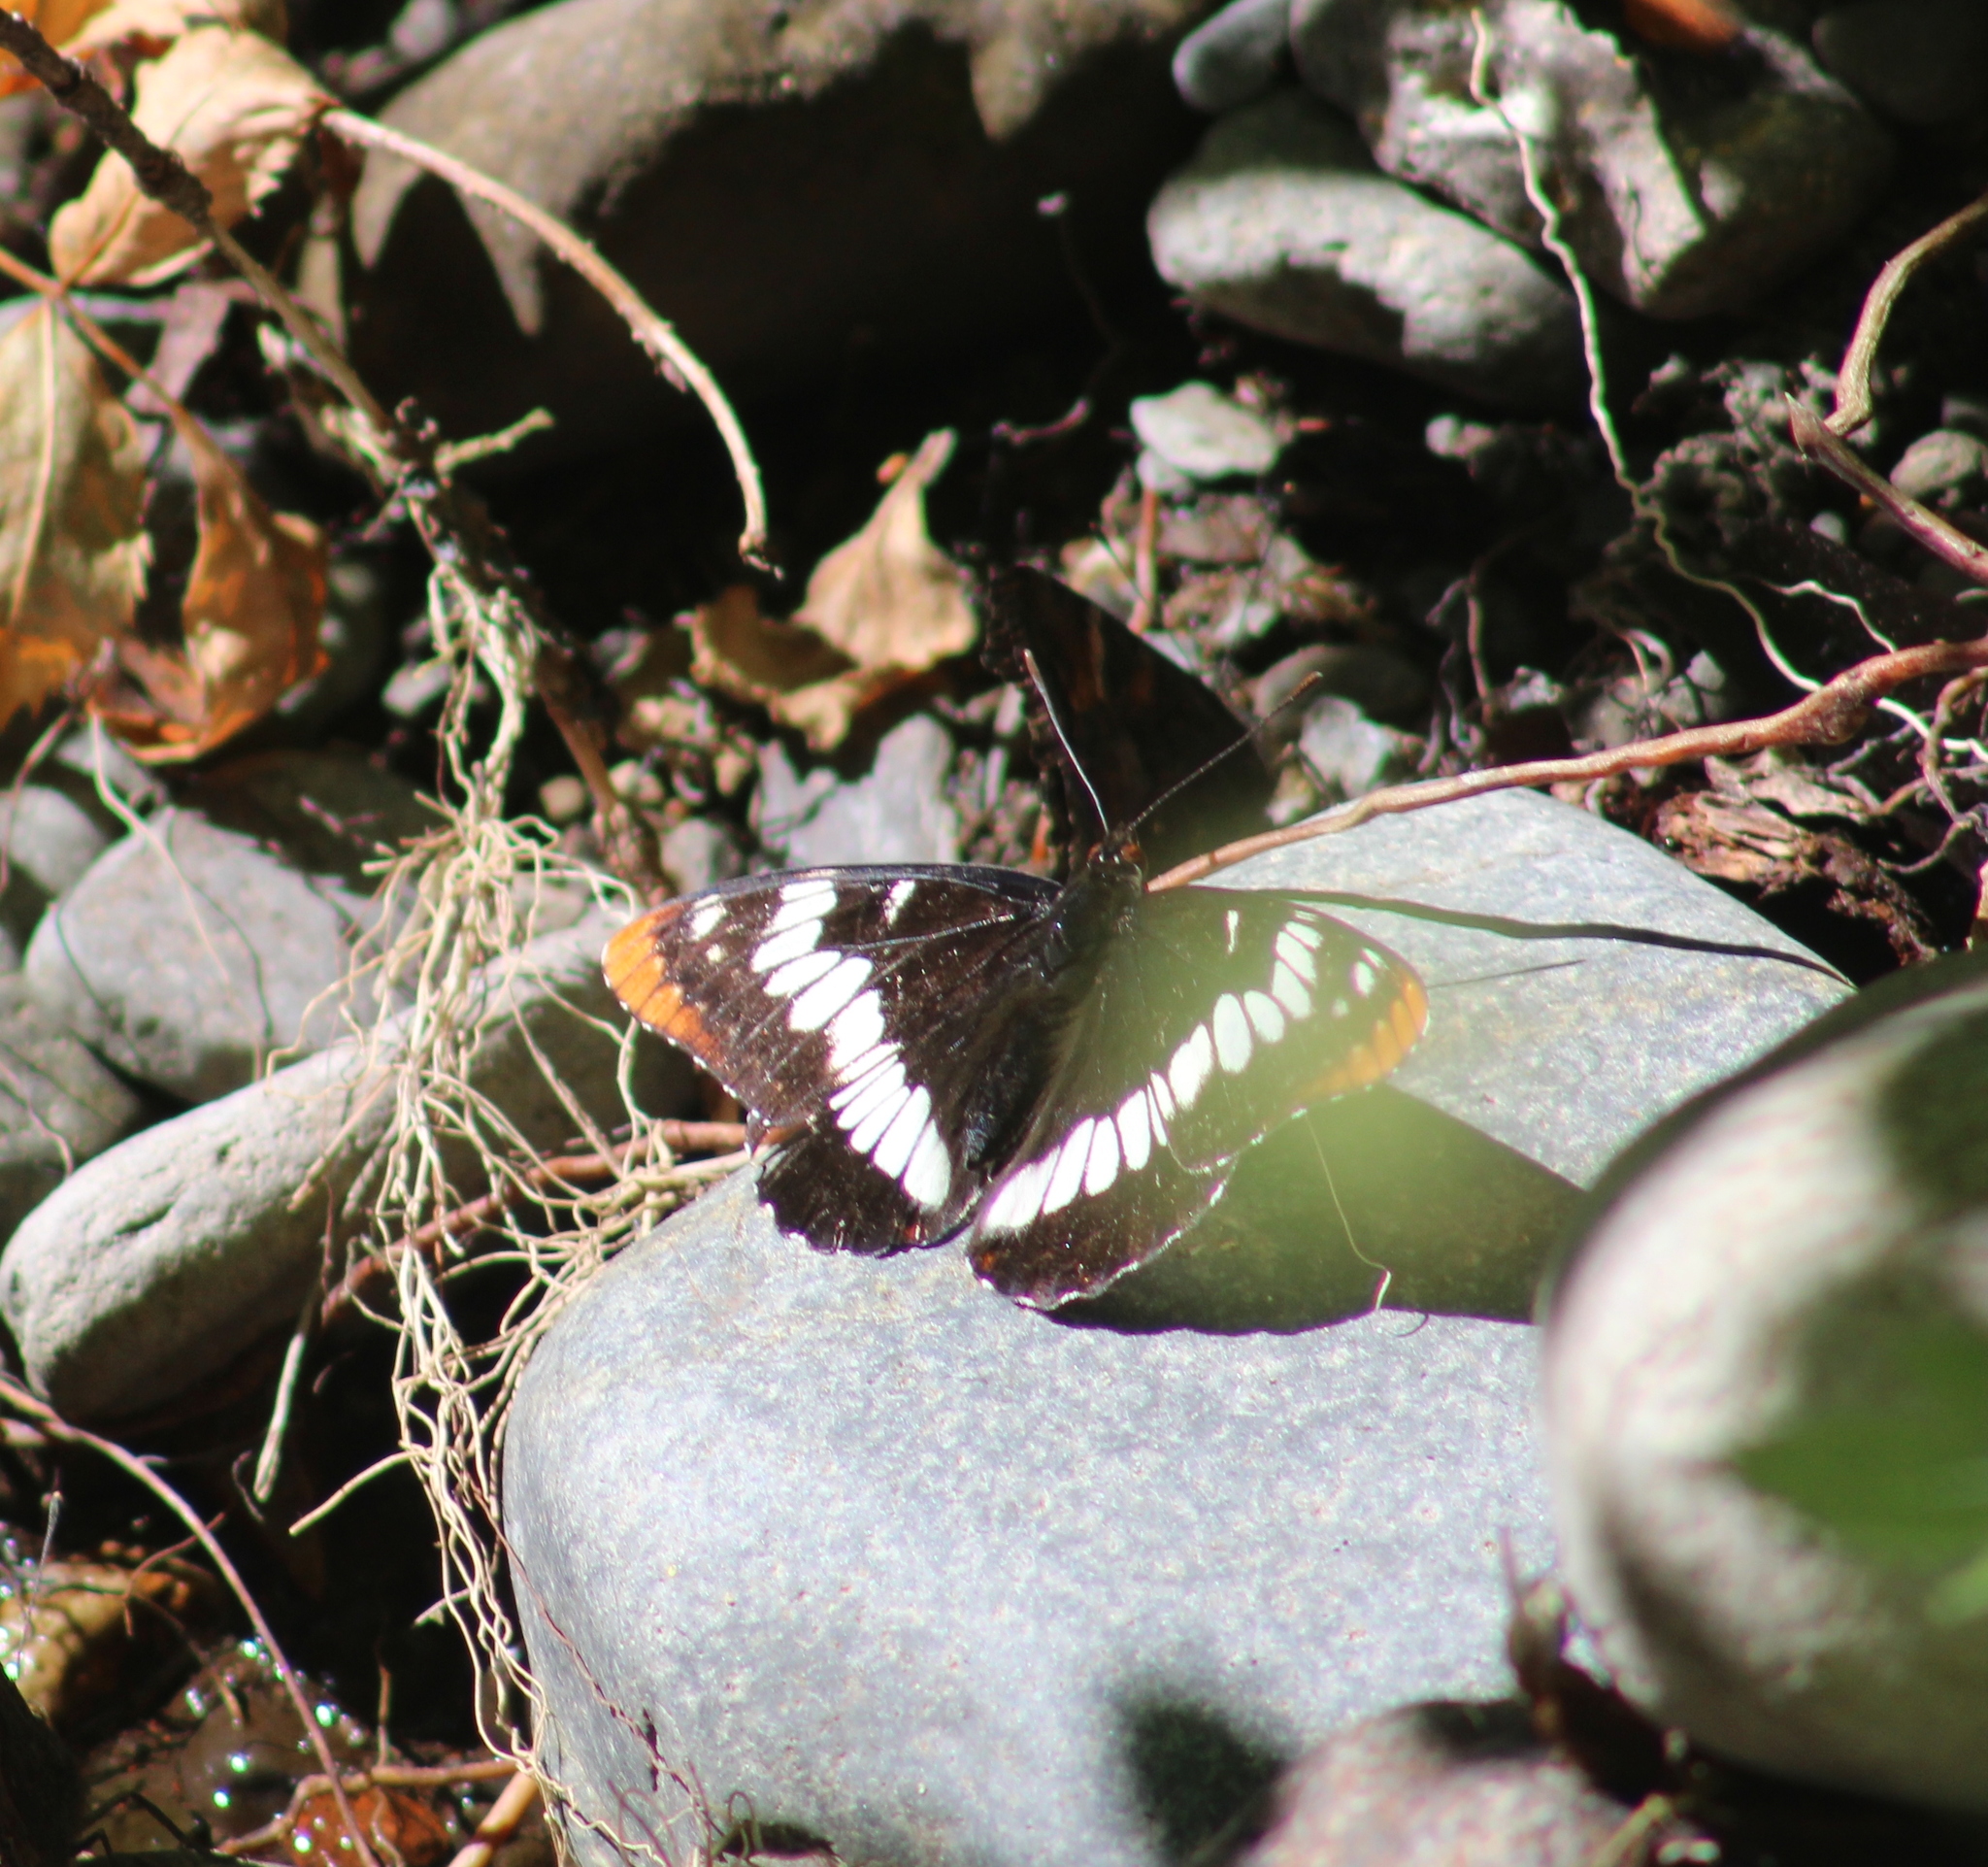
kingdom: Animalia
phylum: Arthropoda
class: Insecta
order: Lepidoptera
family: Nymphalidae
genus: Limenitis
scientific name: Limenitis lorquini
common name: Lorquin's admiral
